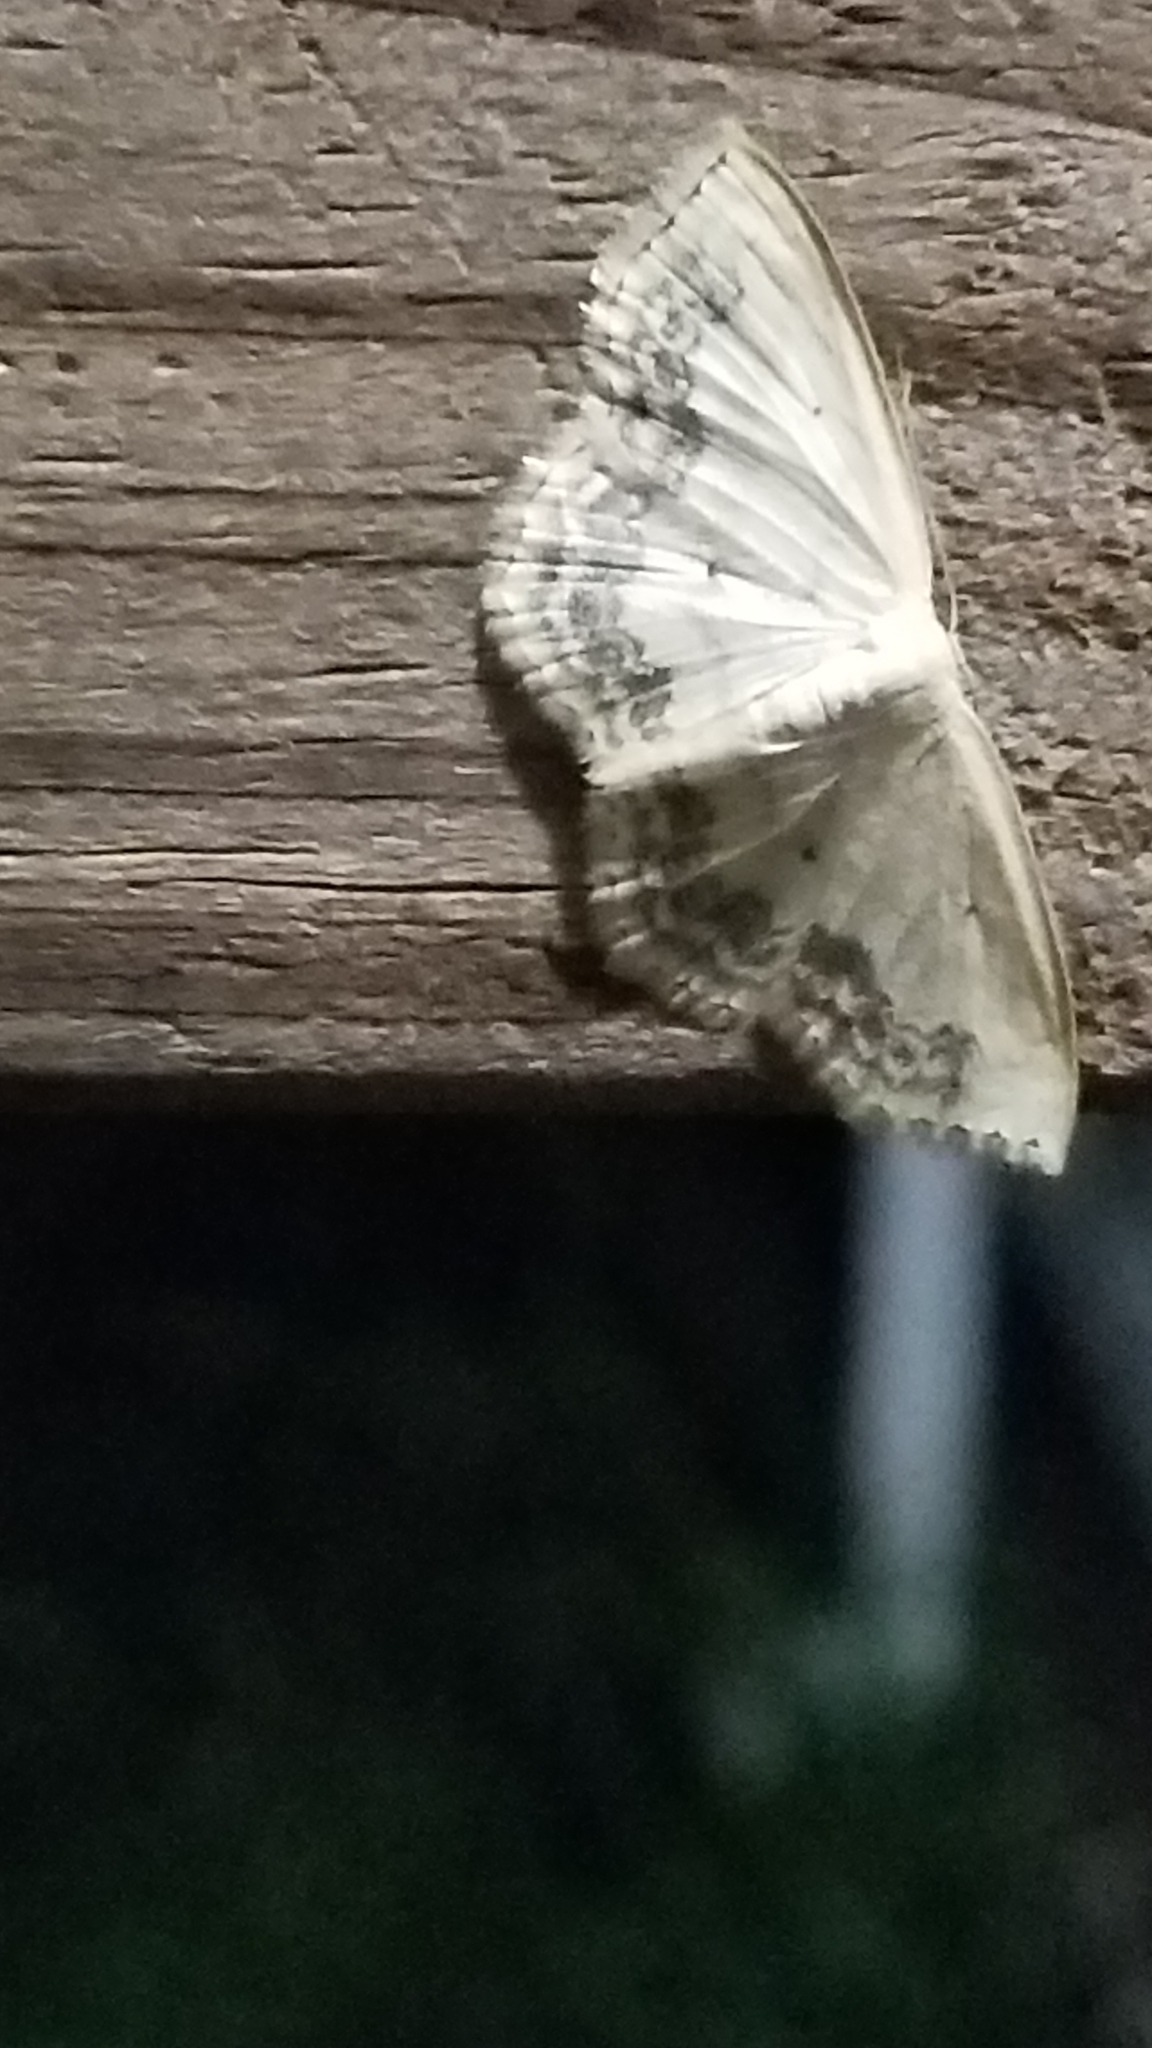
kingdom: Animalia
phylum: Arthropoda
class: Insecta
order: Lepidoptera
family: Geometridae
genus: Scopula
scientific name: Scopula limboundata
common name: Large lace border
